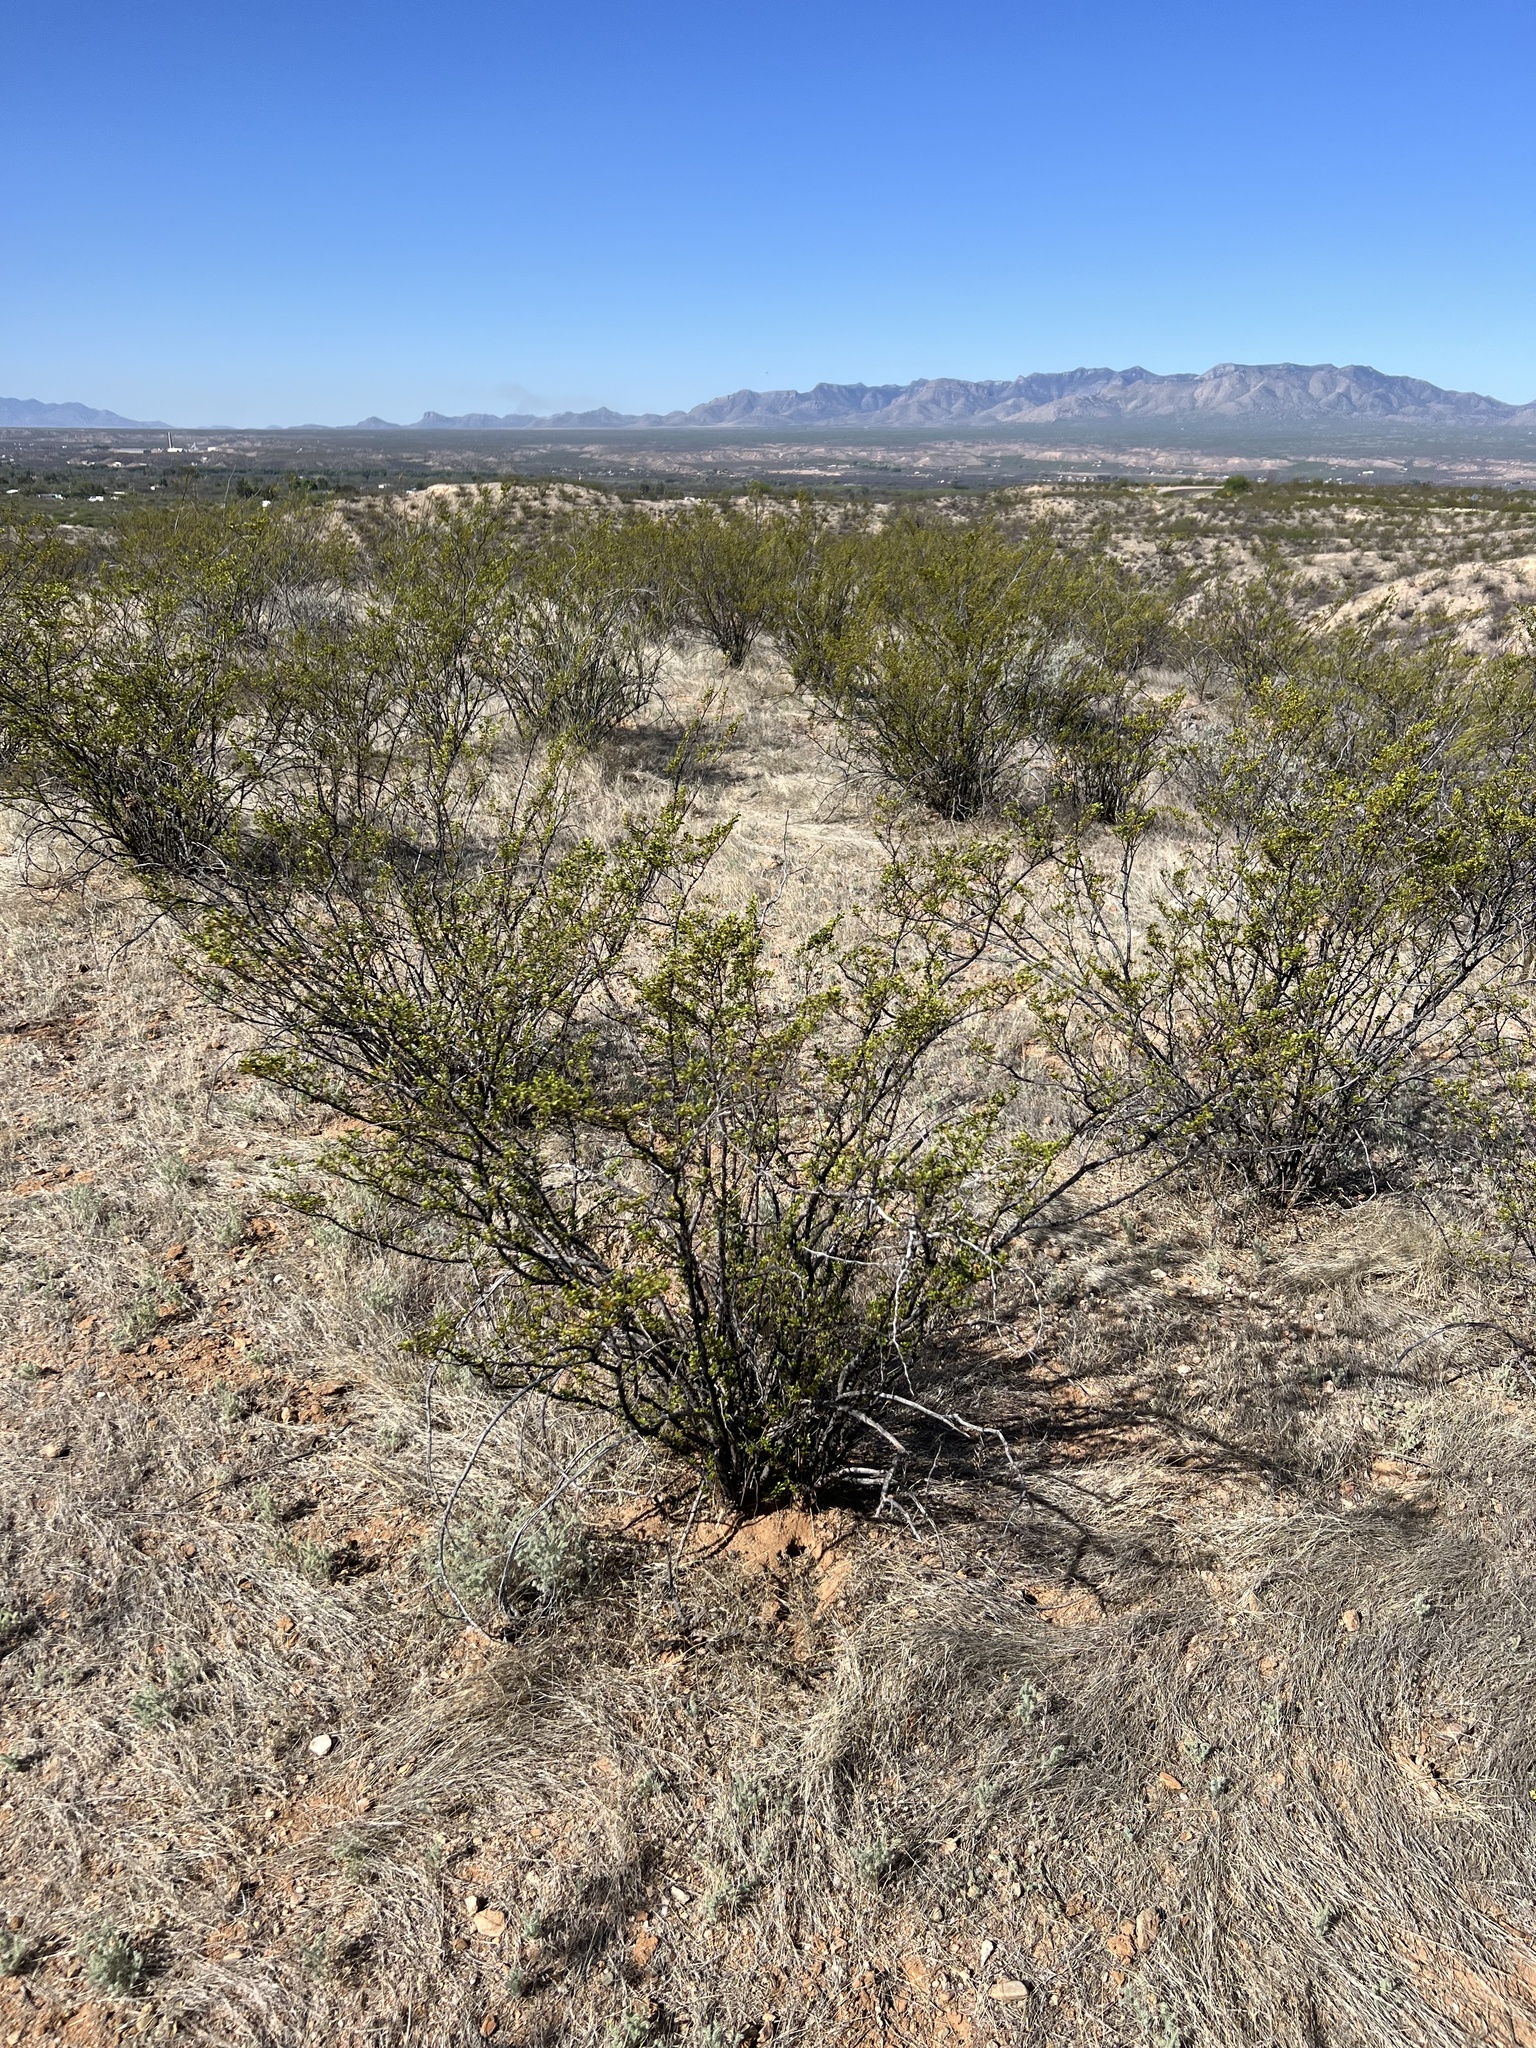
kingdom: Plantae
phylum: Tracheophyta
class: Magnoliopsida
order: Zygophyllales
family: Zygophyllaceae
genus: Larrea
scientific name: Larrea tridentata
